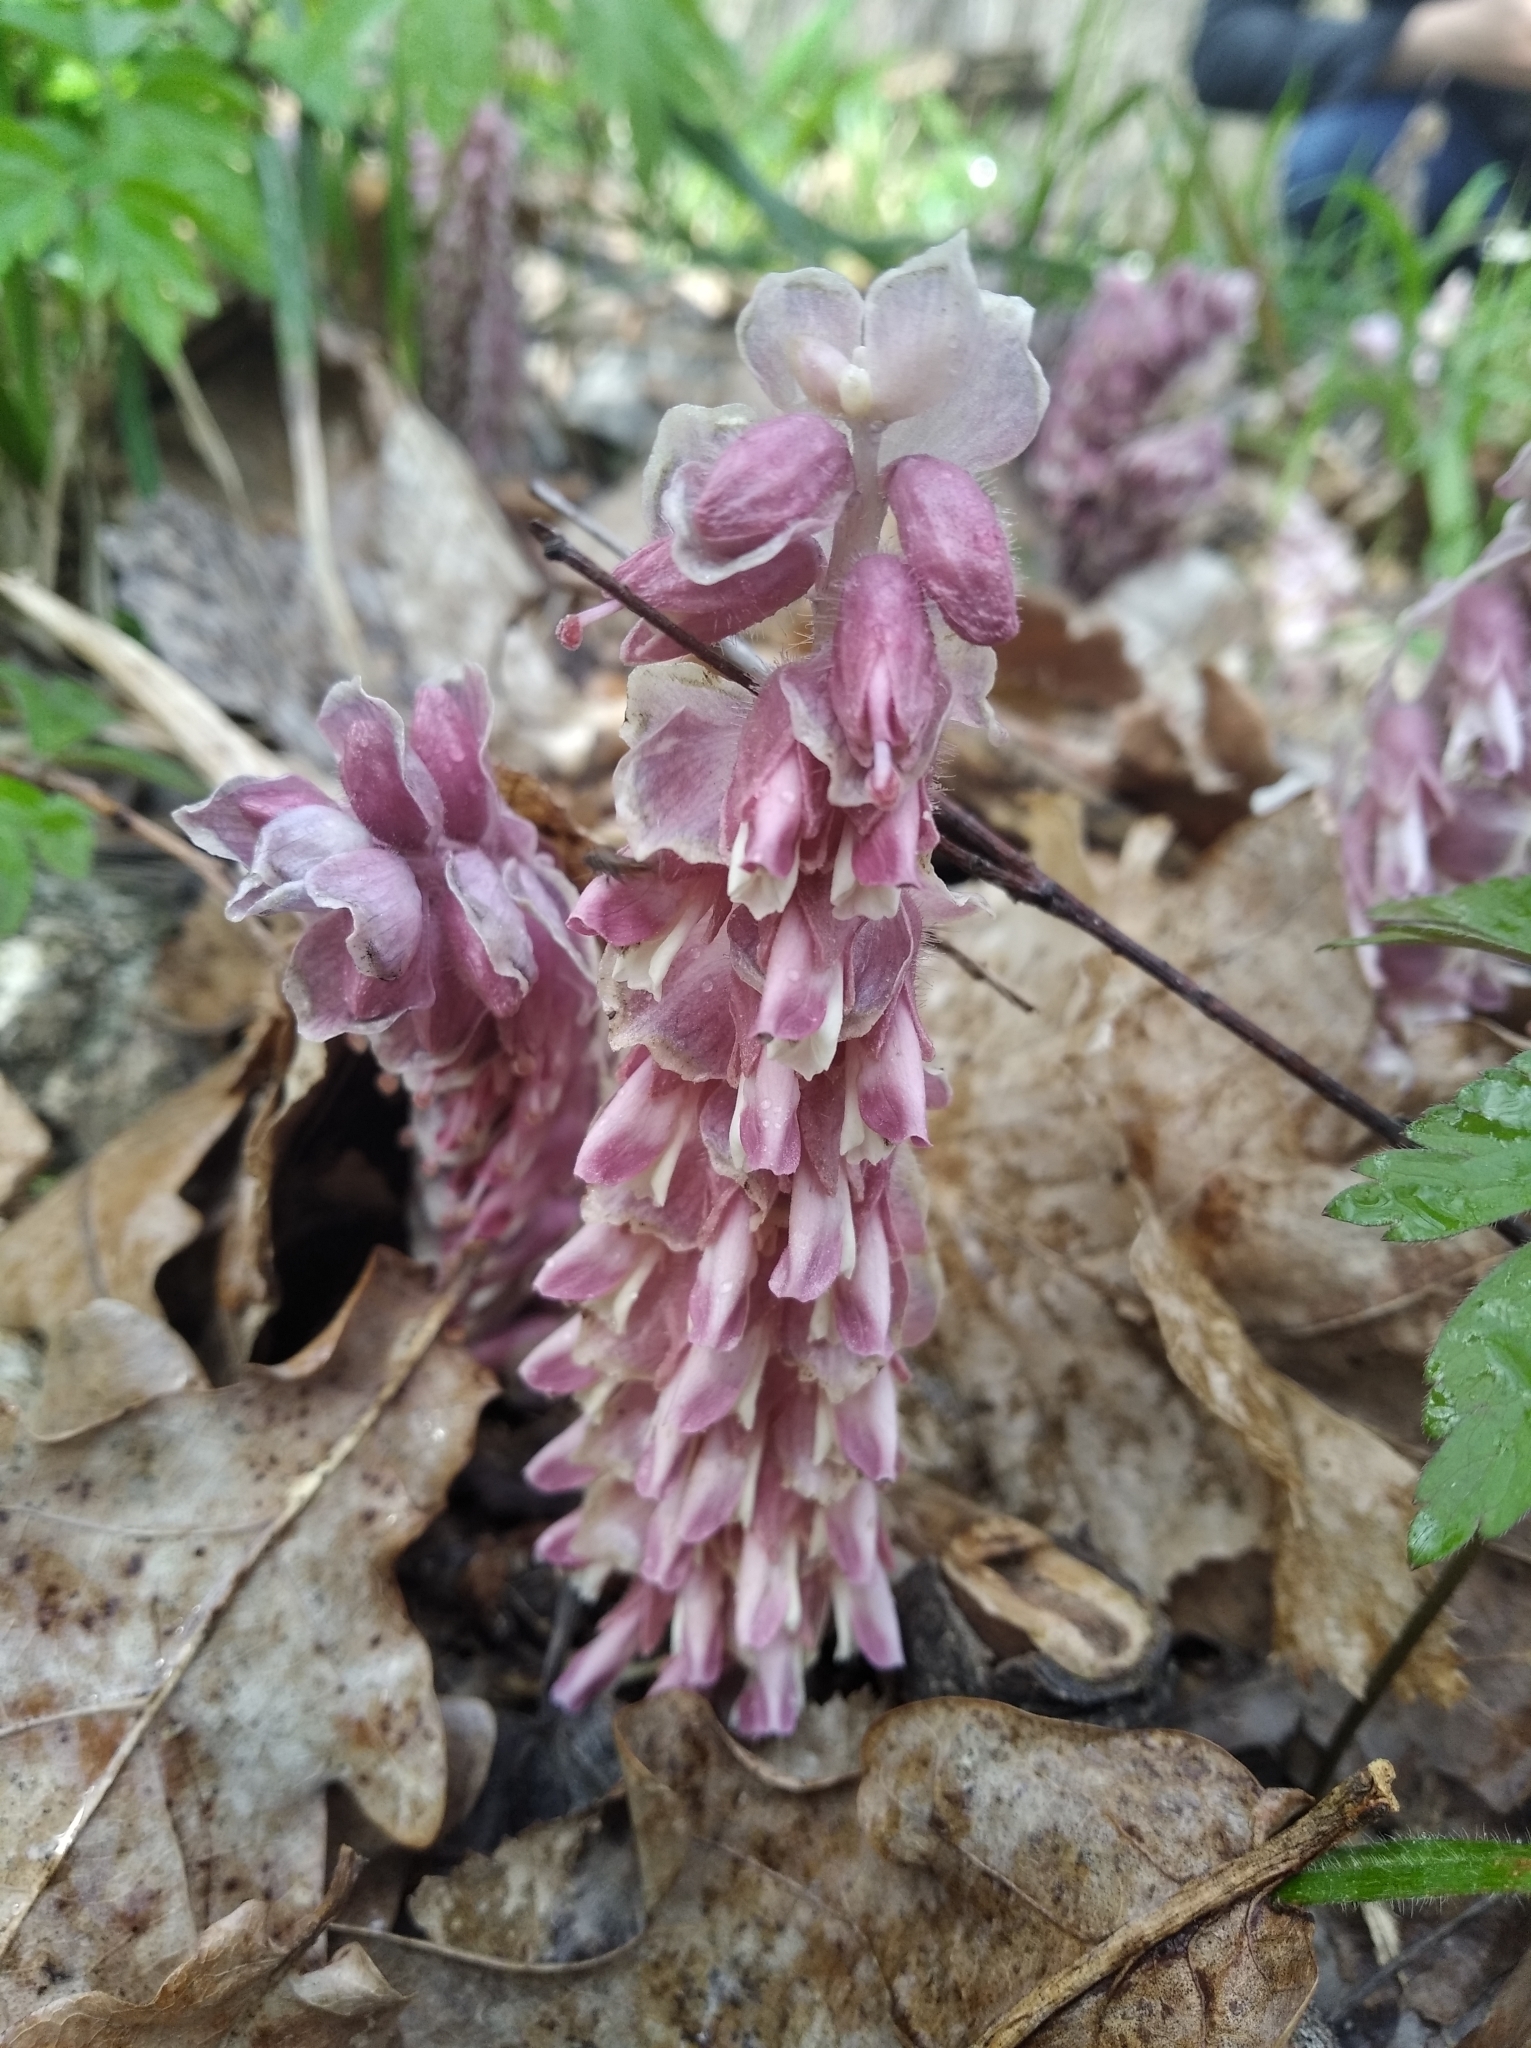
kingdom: Plantae
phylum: Tracheophyta
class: Magnoliopsida
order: Lamiales
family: Orobanchaceae
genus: Lathraea
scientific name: Lathraea squamaria
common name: Toothwort
